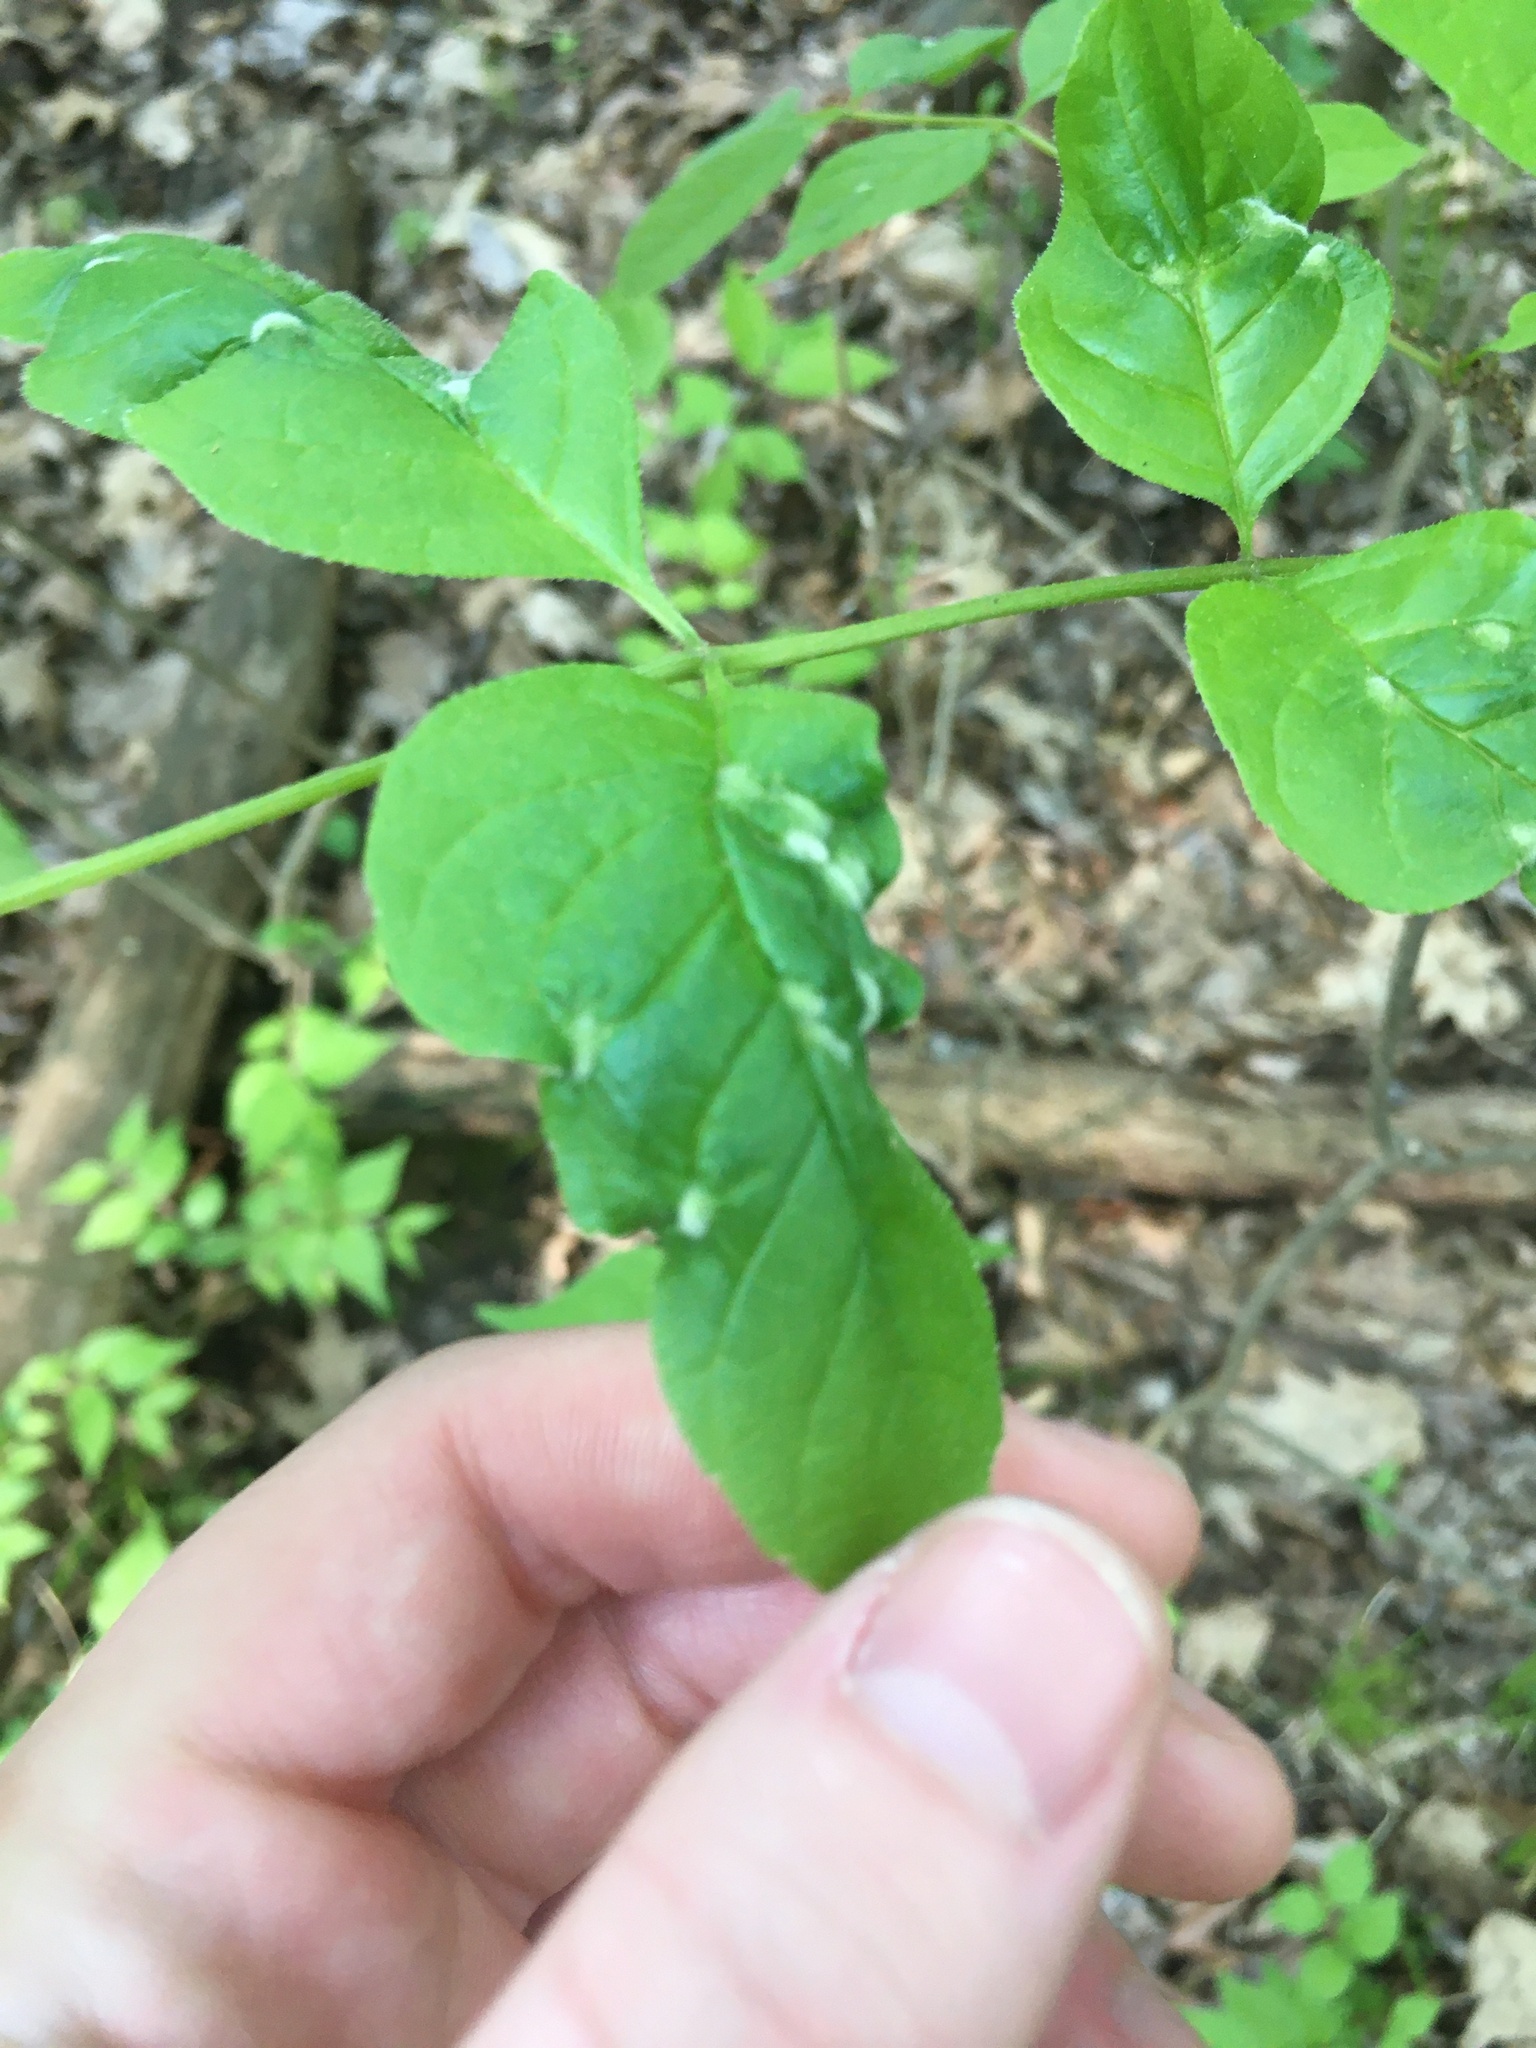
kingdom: Animalia
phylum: Arthropoda
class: Arachnida
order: Trombidiformes
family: Eriophyidae
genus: Aceria
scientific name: Aceria fraxinicola
